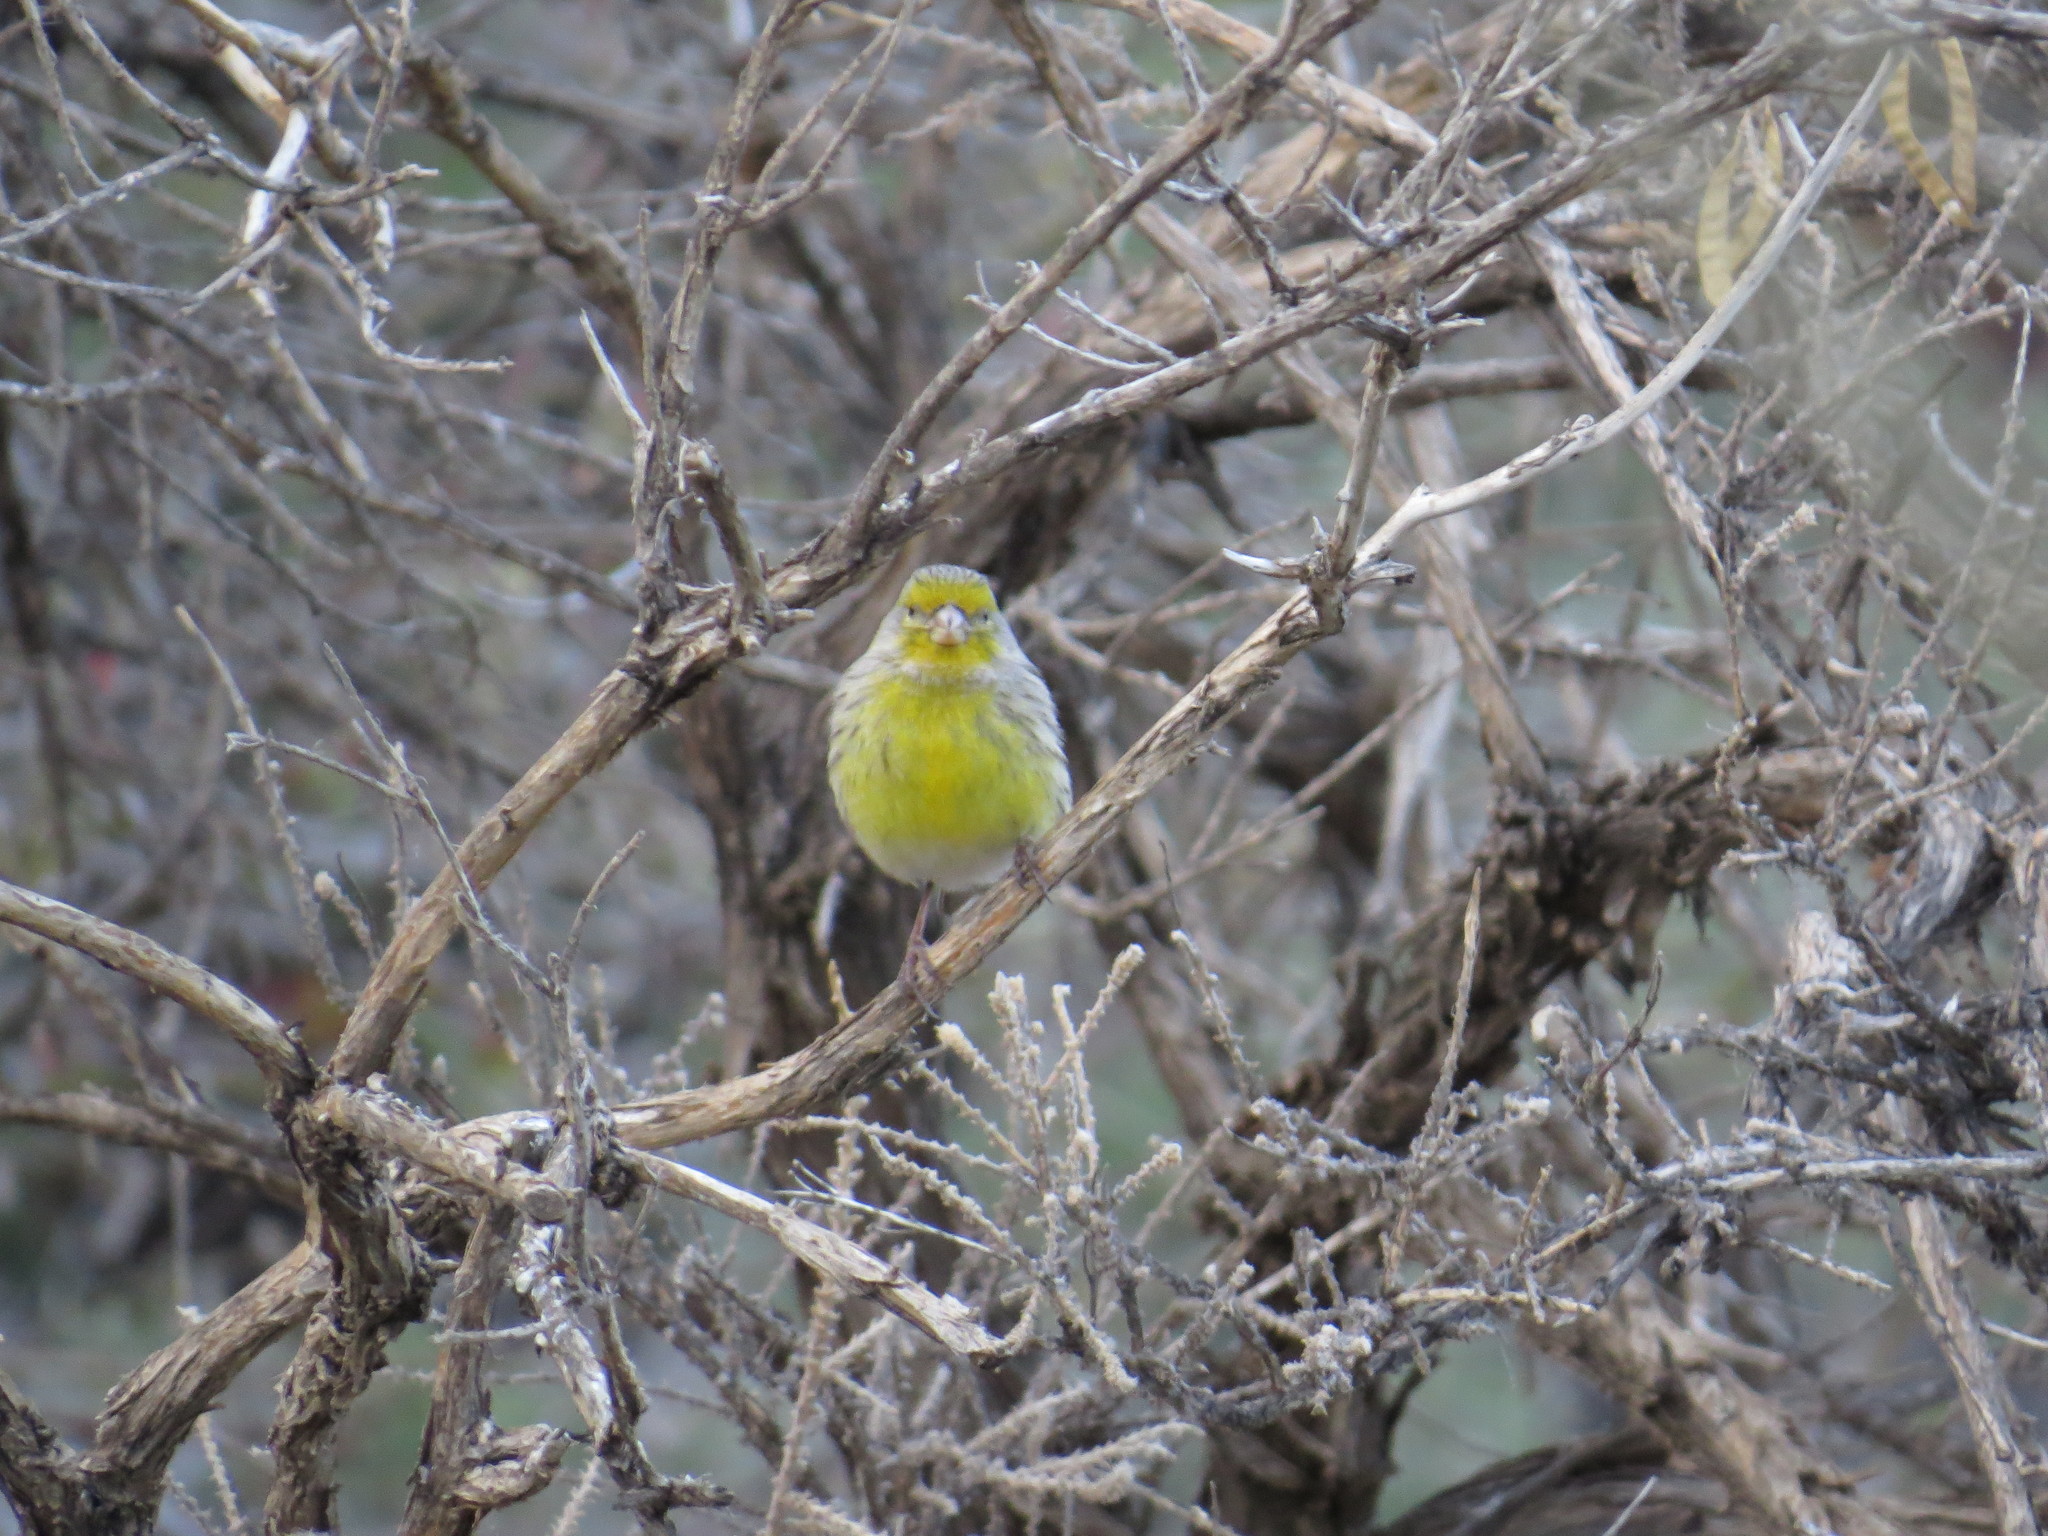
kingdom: Animalia
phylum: Chordata
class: Aves
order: Passeriformes
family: Fringillidae
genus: Serinus
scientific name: Serinus canaria
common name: Atlantic canary
